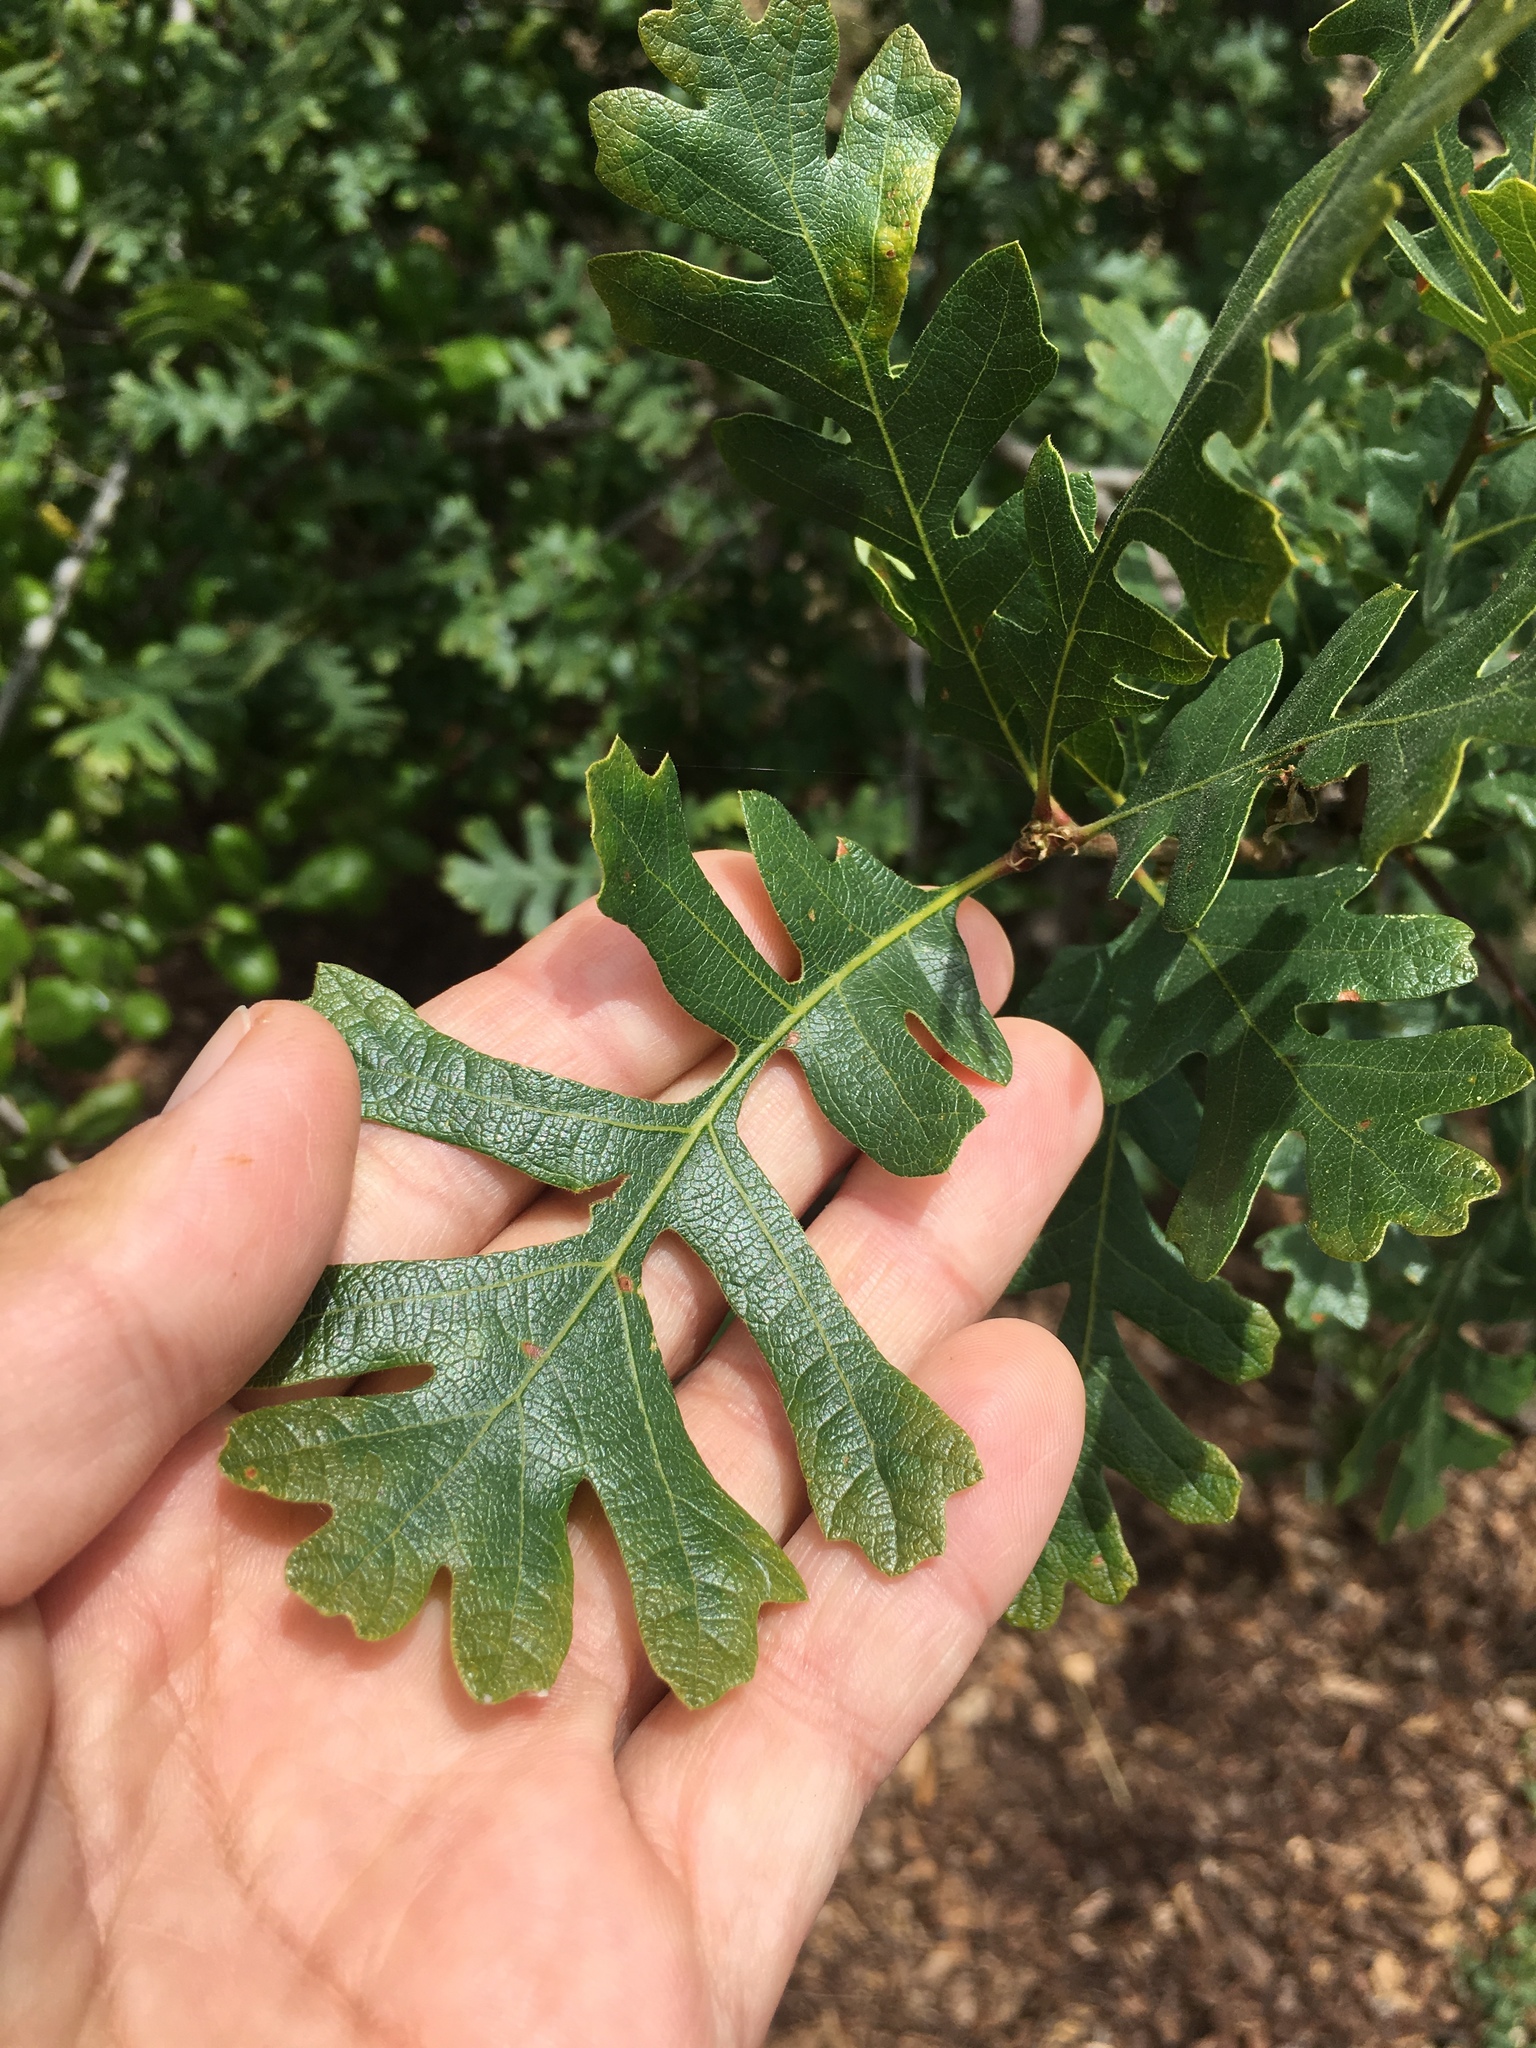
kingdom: Plantae
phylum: Tracheophyta
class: Magnoliopsida
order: Fagales
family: Fagaceae
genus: Quercus
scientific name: Quercus lobata
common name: Valley oak
